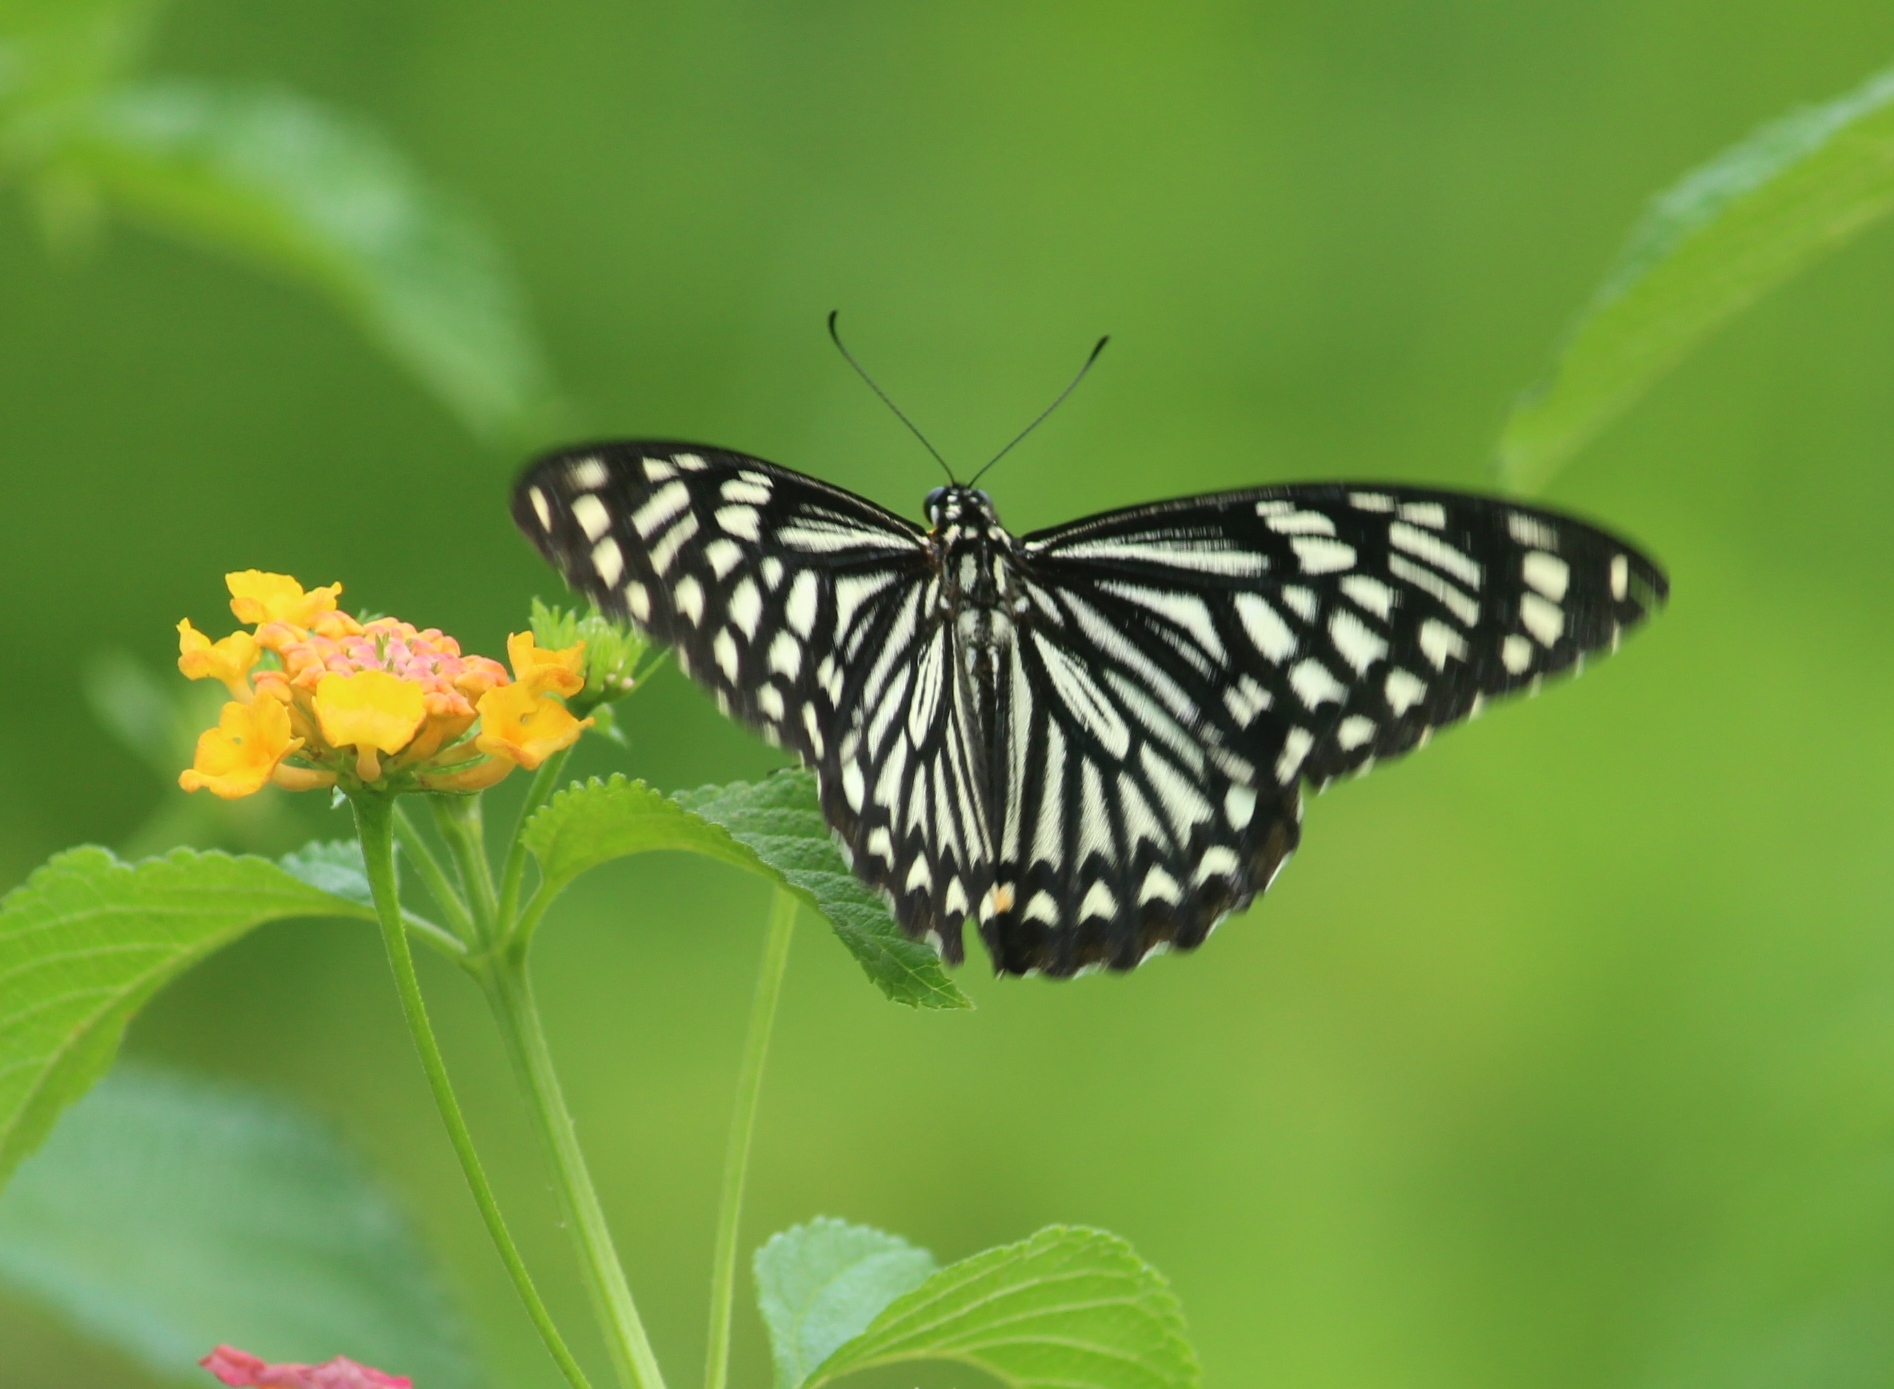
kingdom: Animalia
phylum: Arthropoda
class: Insecta
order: Lepidoptera
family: Papilionidae
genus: Chilasa
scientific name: Chilasa clytia
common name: Common mime
